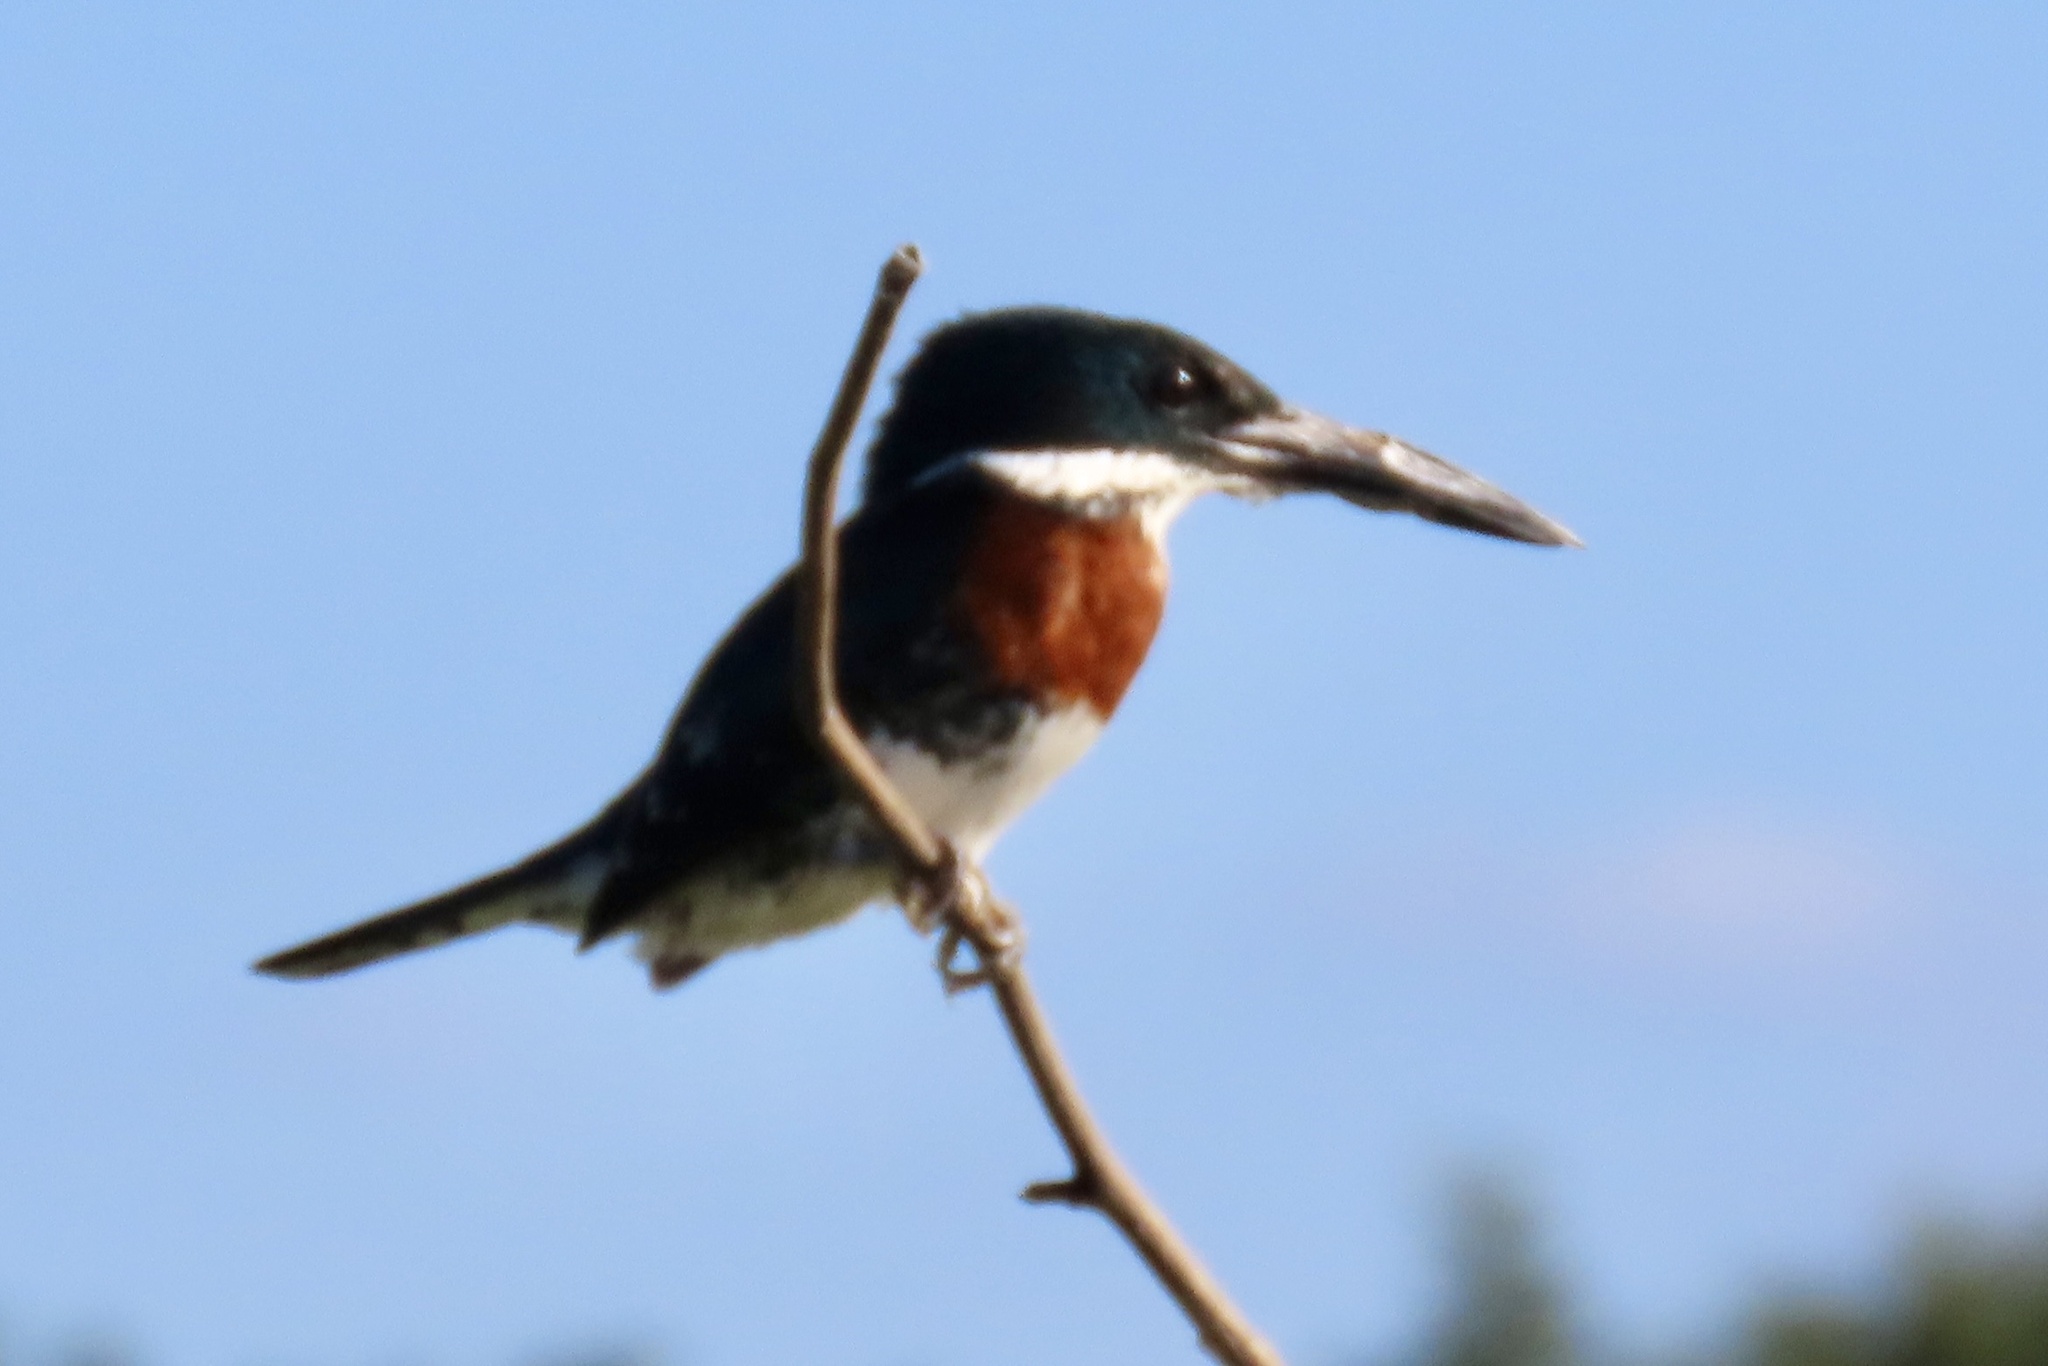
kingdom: Animalia
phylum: Chordata
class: Aves
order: Coraciiformes
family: Alcedinidae
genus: Chloroceryle
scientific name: Chloroceryle americana
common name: Green kingfisher
